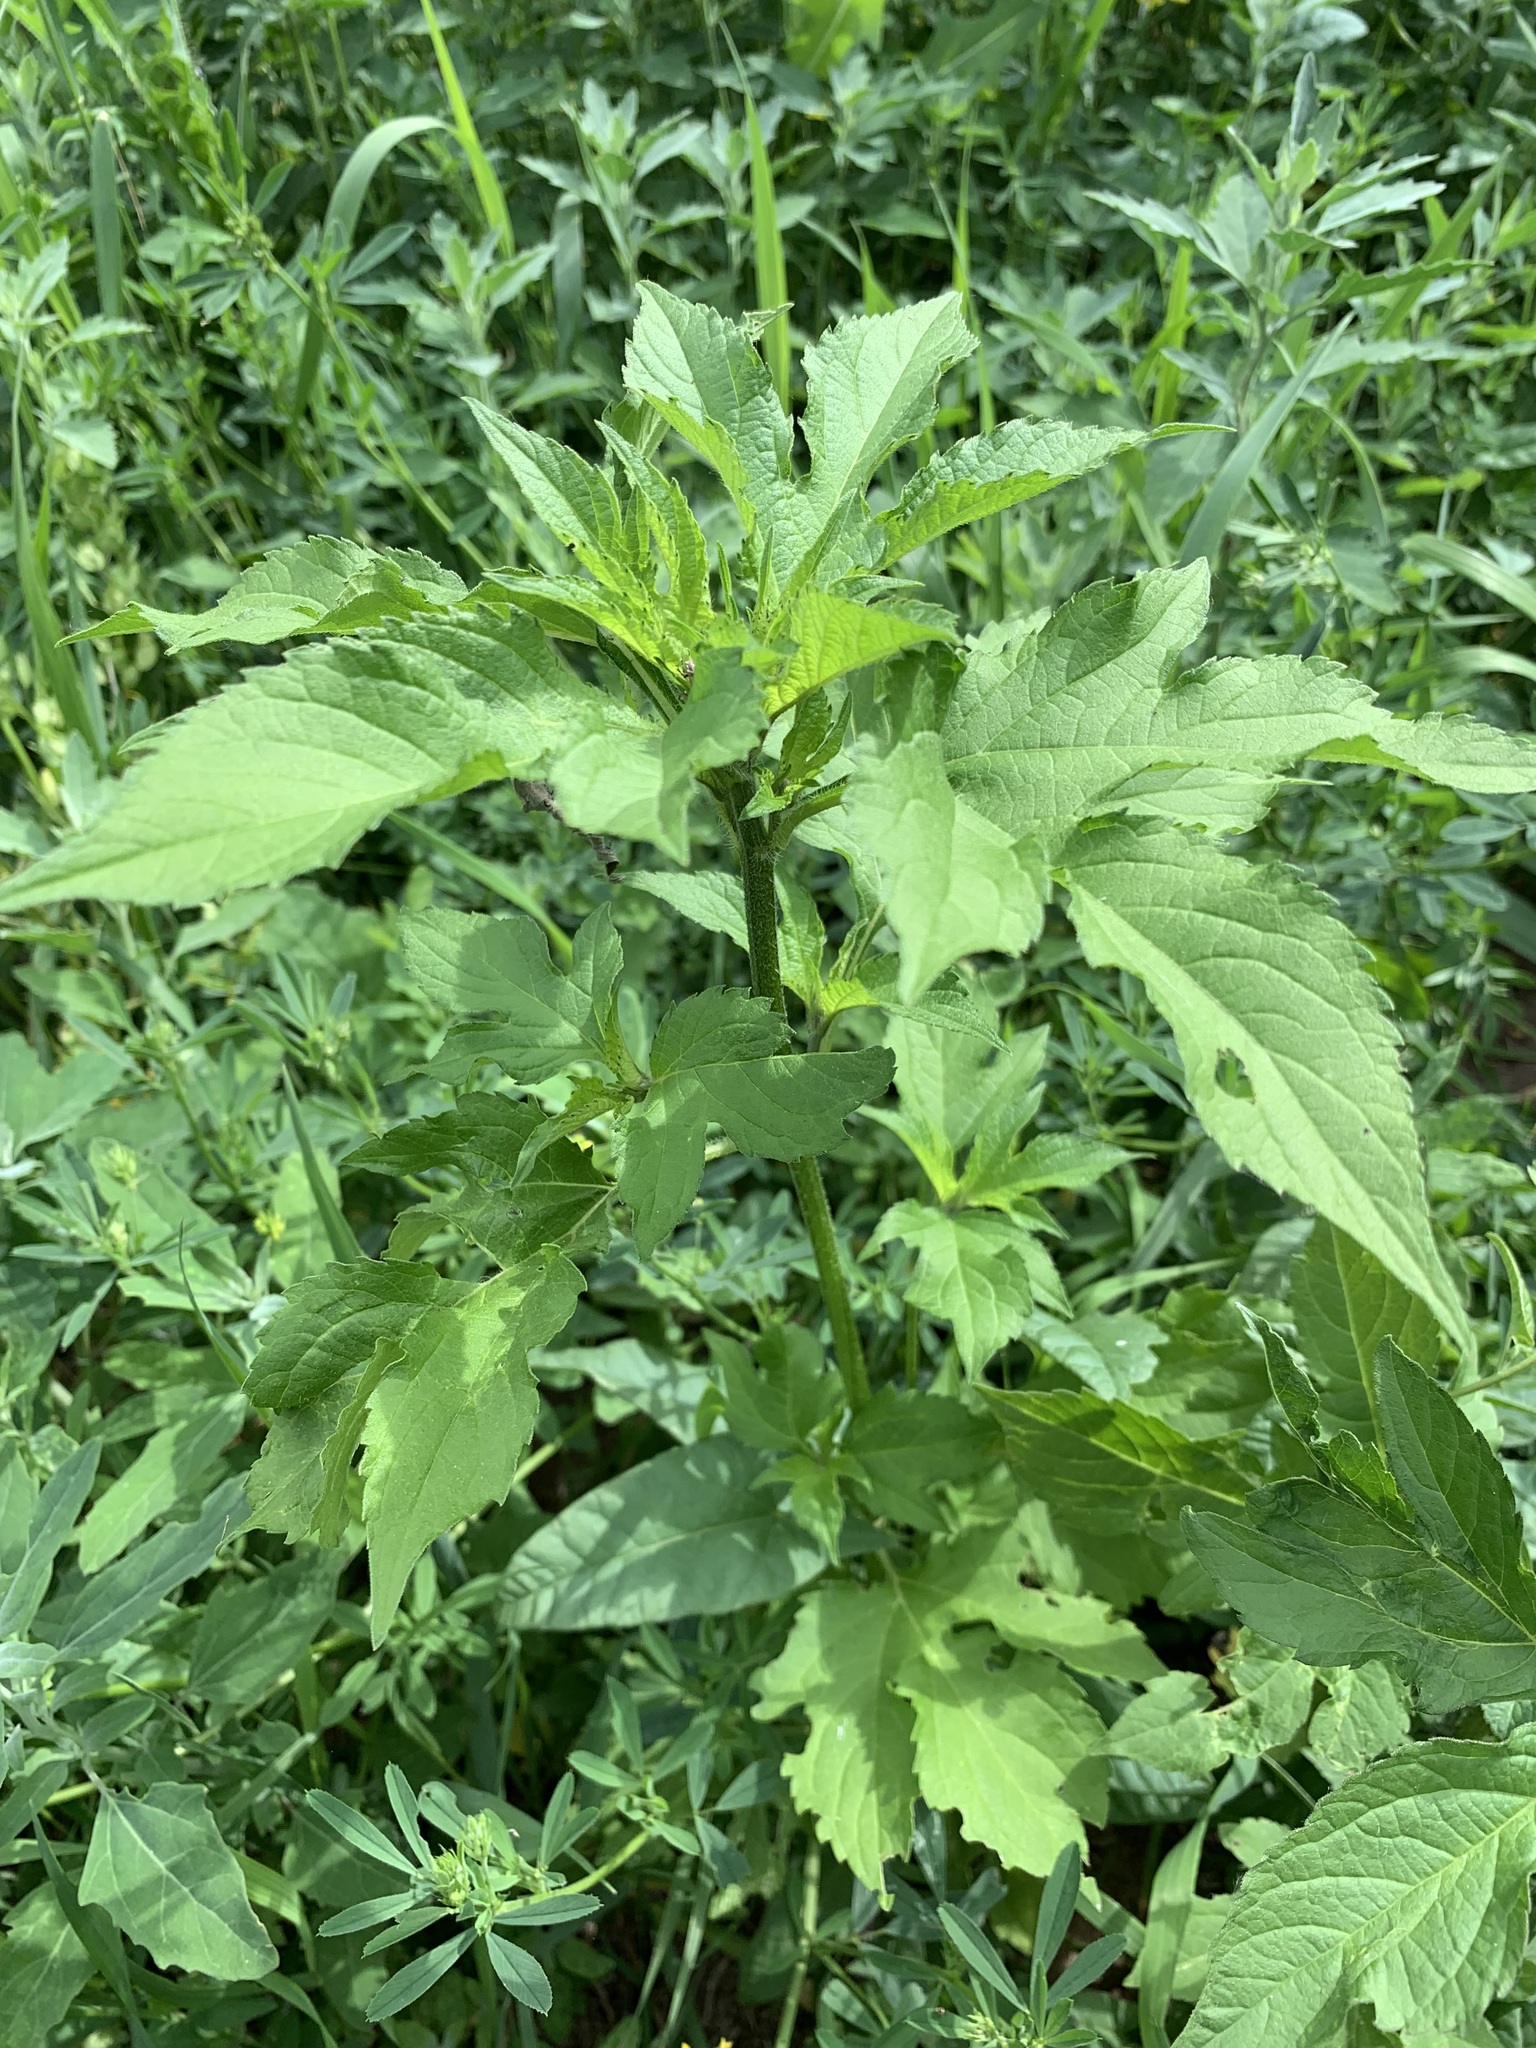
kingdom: Plantae
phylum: Tracheophyta
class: Magnoliopsida
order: Asterales
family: Asteraceae
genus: Ambrosia
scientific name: Ambrosia trifida
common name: Giant ragweed
